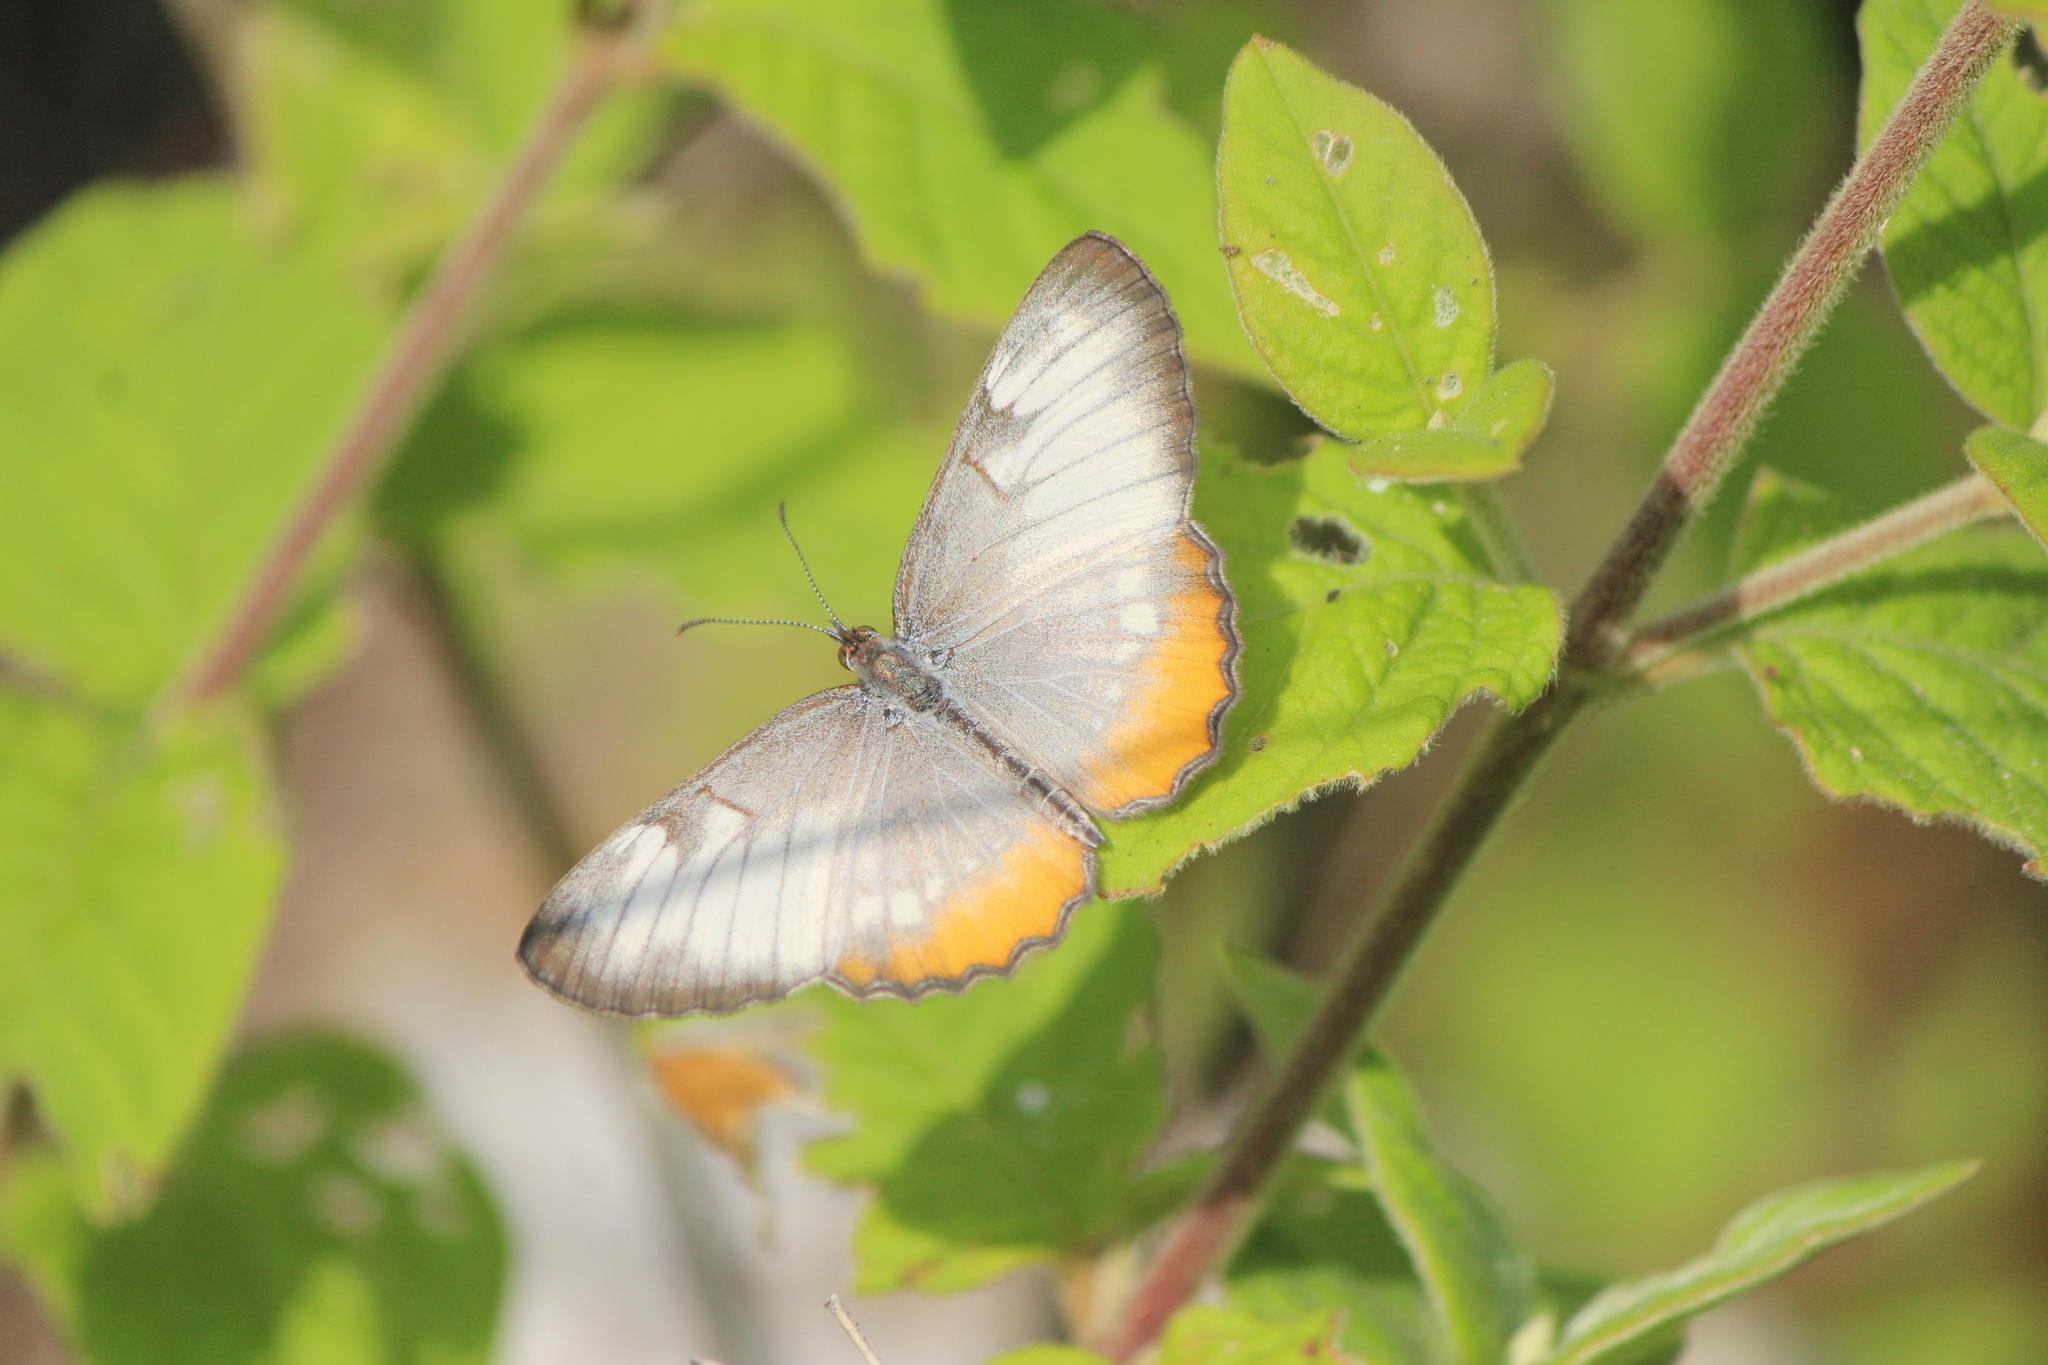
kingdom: Animalia
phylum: Arthropoda
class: Insecta
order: Lepidoptera
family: Nymphalidae
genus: Mestra
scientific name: Mestra amymone
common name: Common mestra
